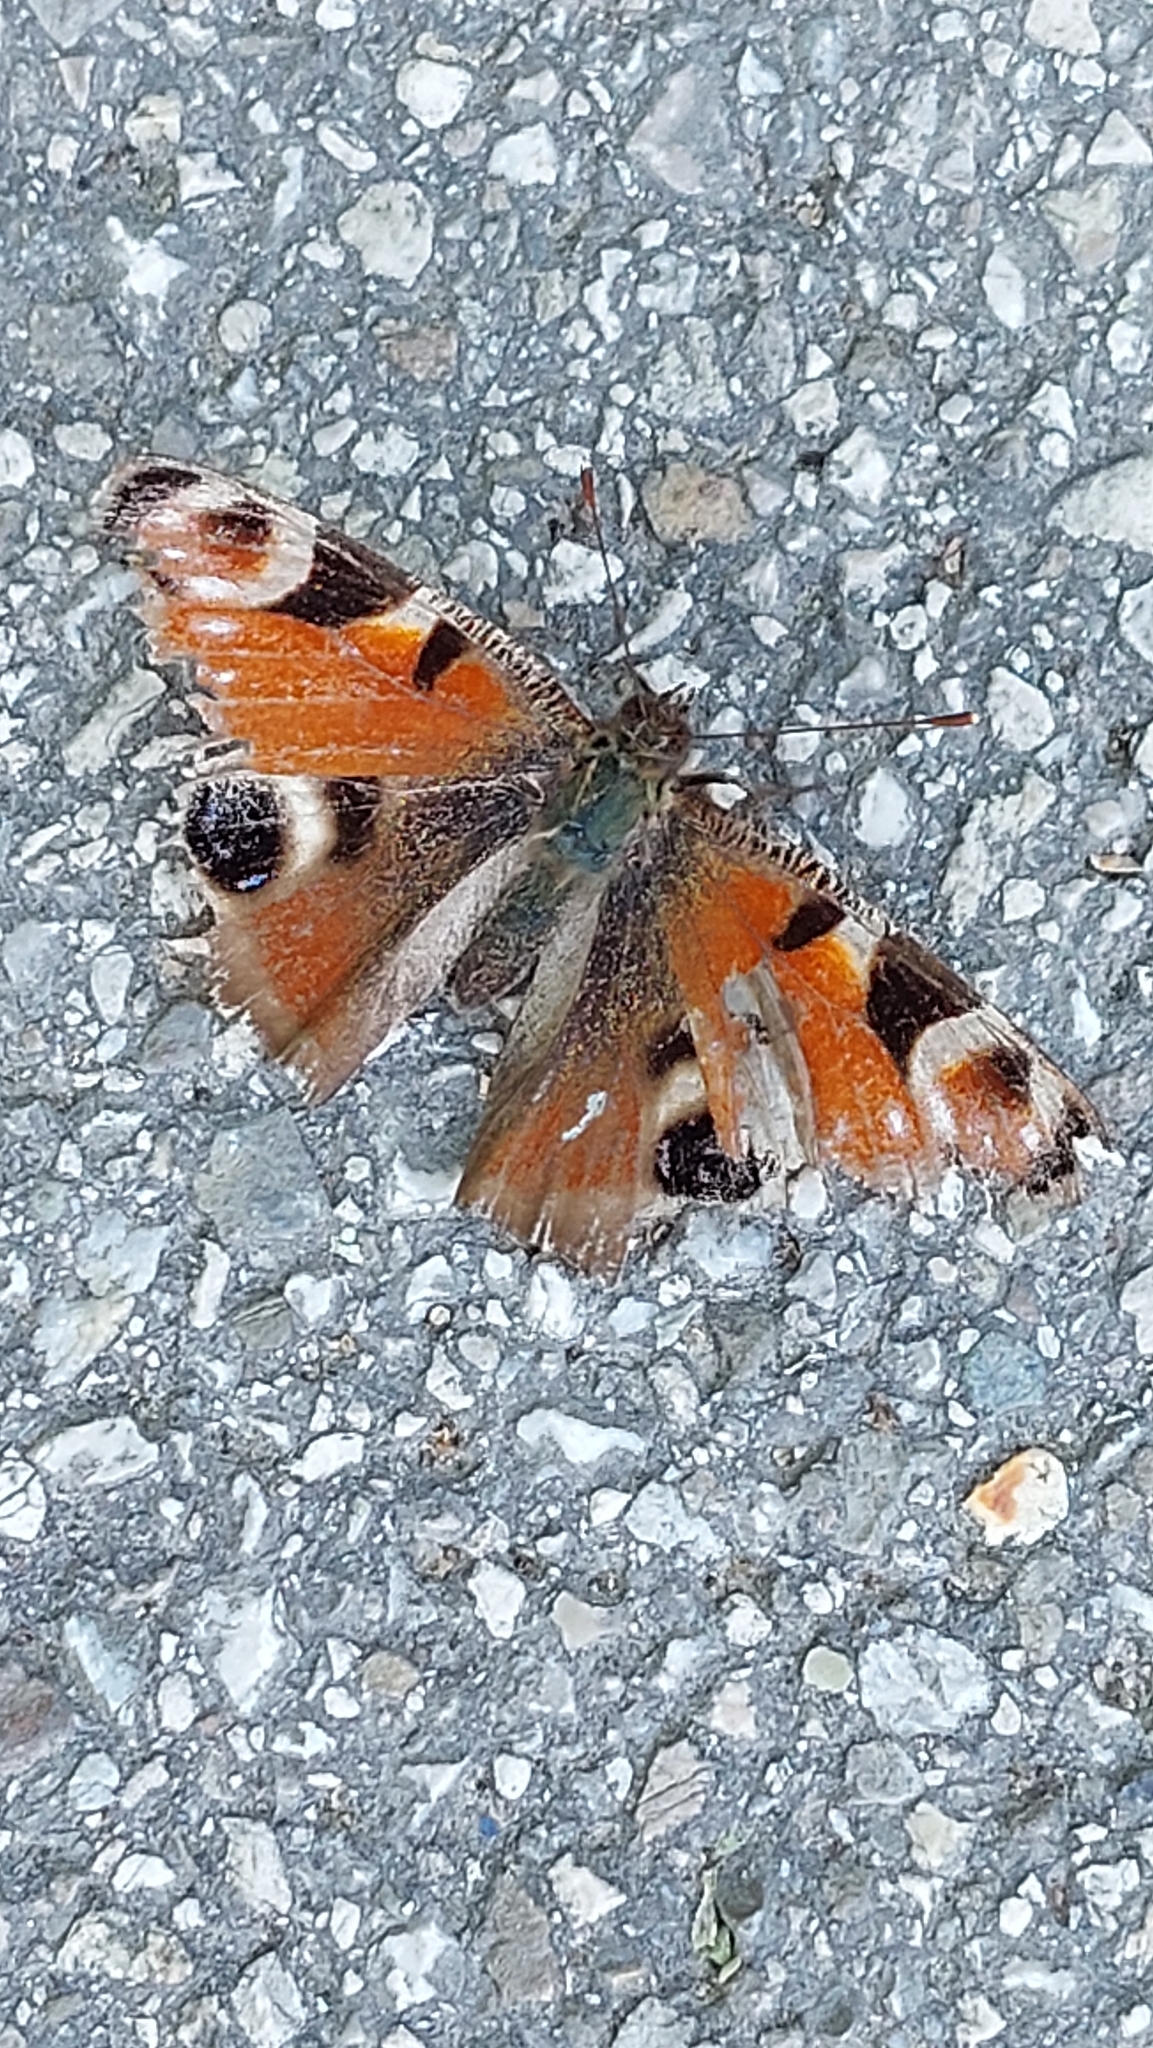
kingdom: Animalia
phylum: Arthropoda
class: Insecta
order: Lepidoptera
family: Nymphalidae
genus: Aglais
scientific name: Aglais io
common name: Peacock
